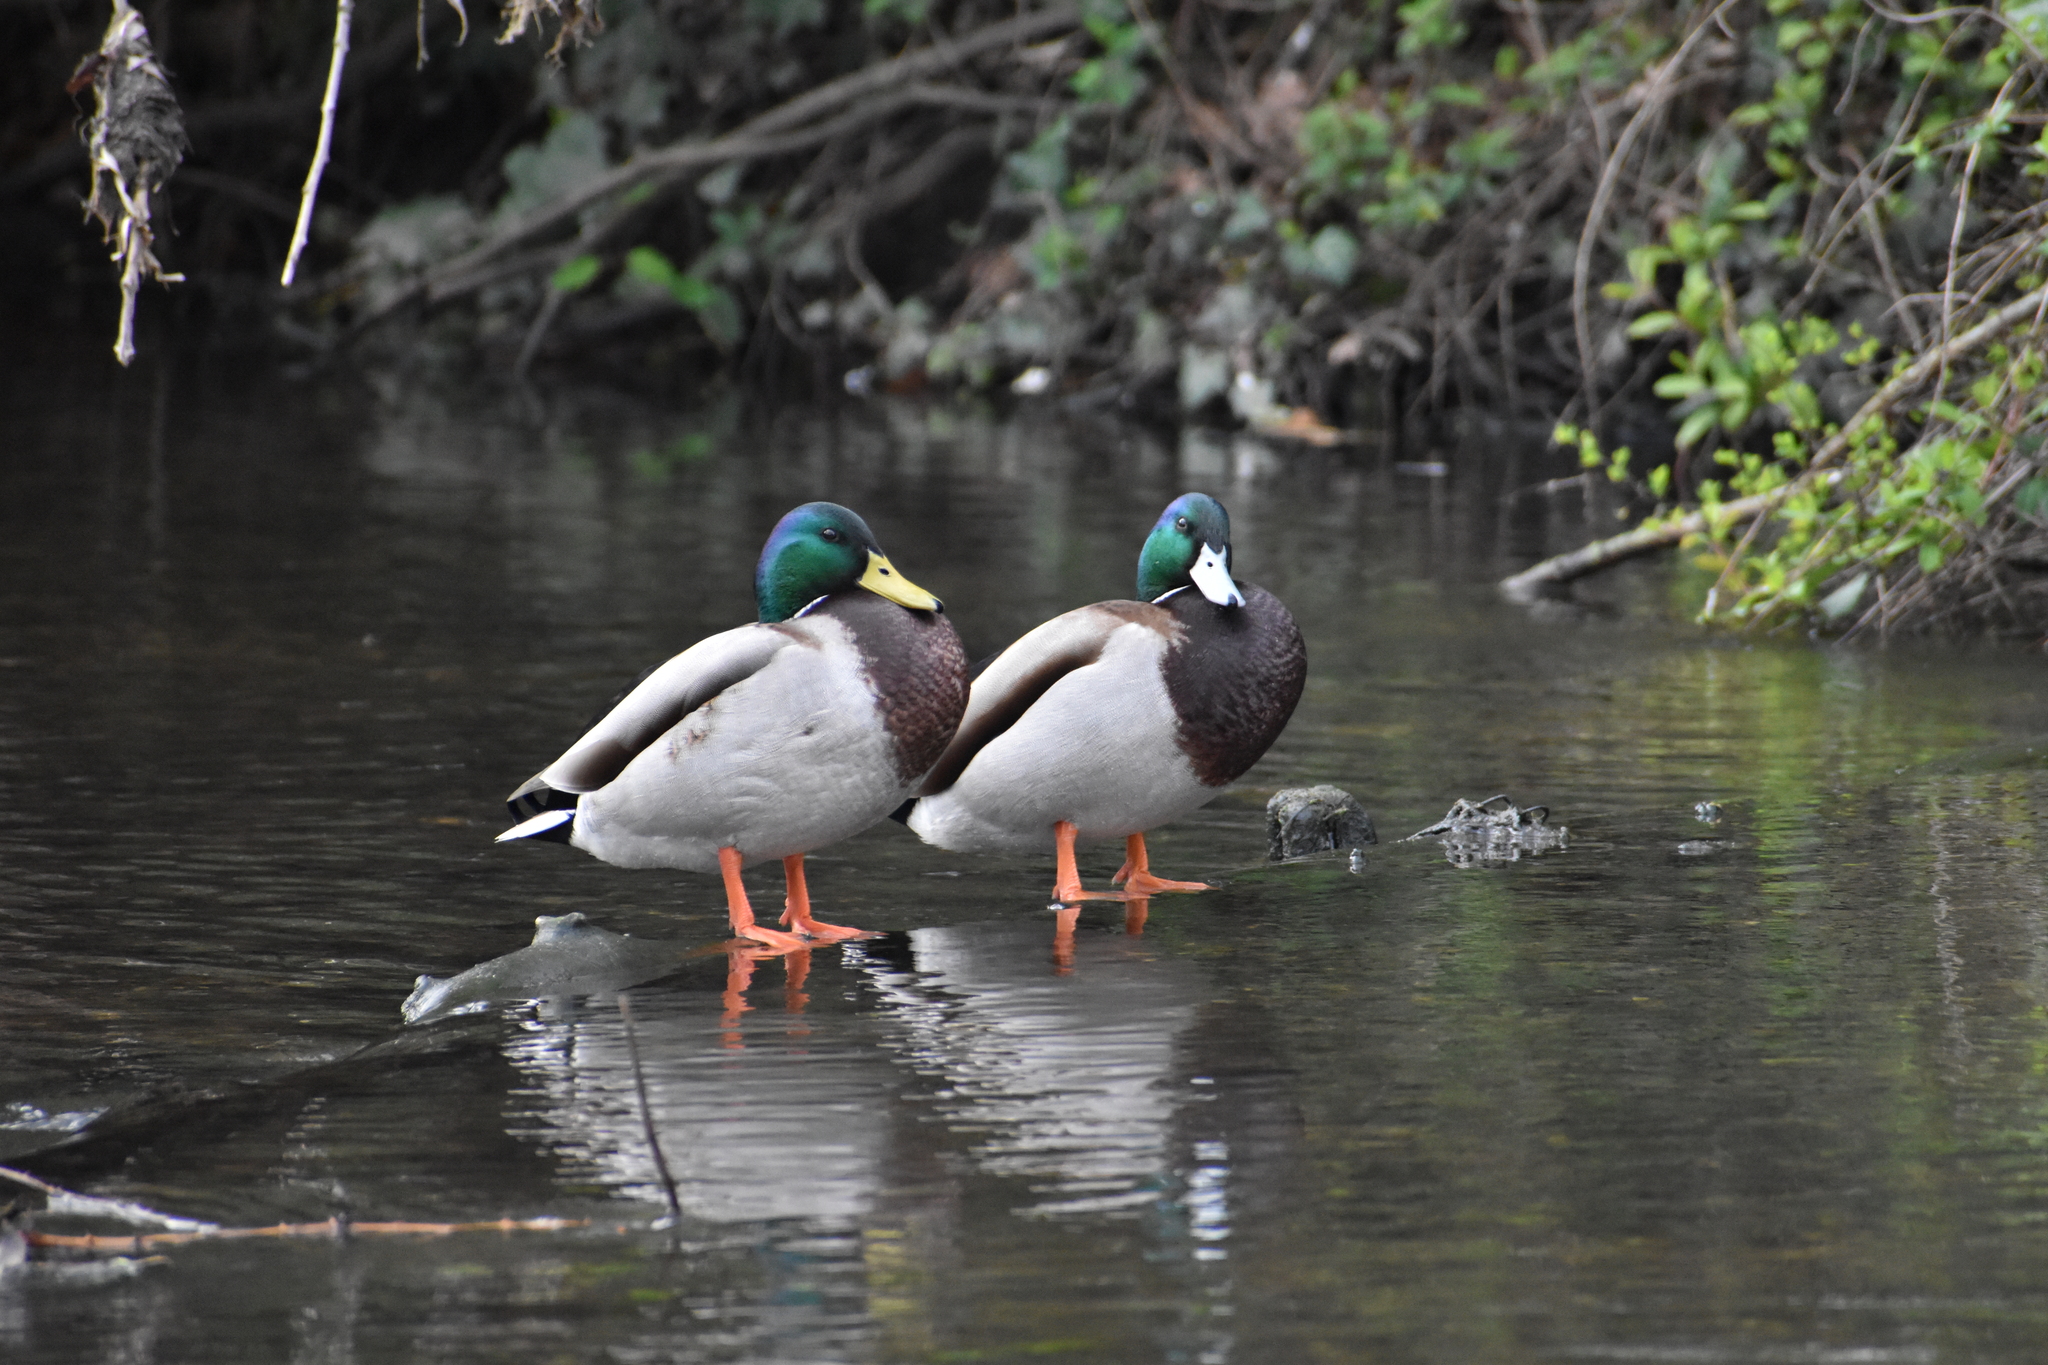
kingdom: Animalia
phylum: Chordata
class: Aves
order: Anseriformes
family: Anatidae
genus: Anas
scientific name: Anas platyrhynchos
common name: Mallard
